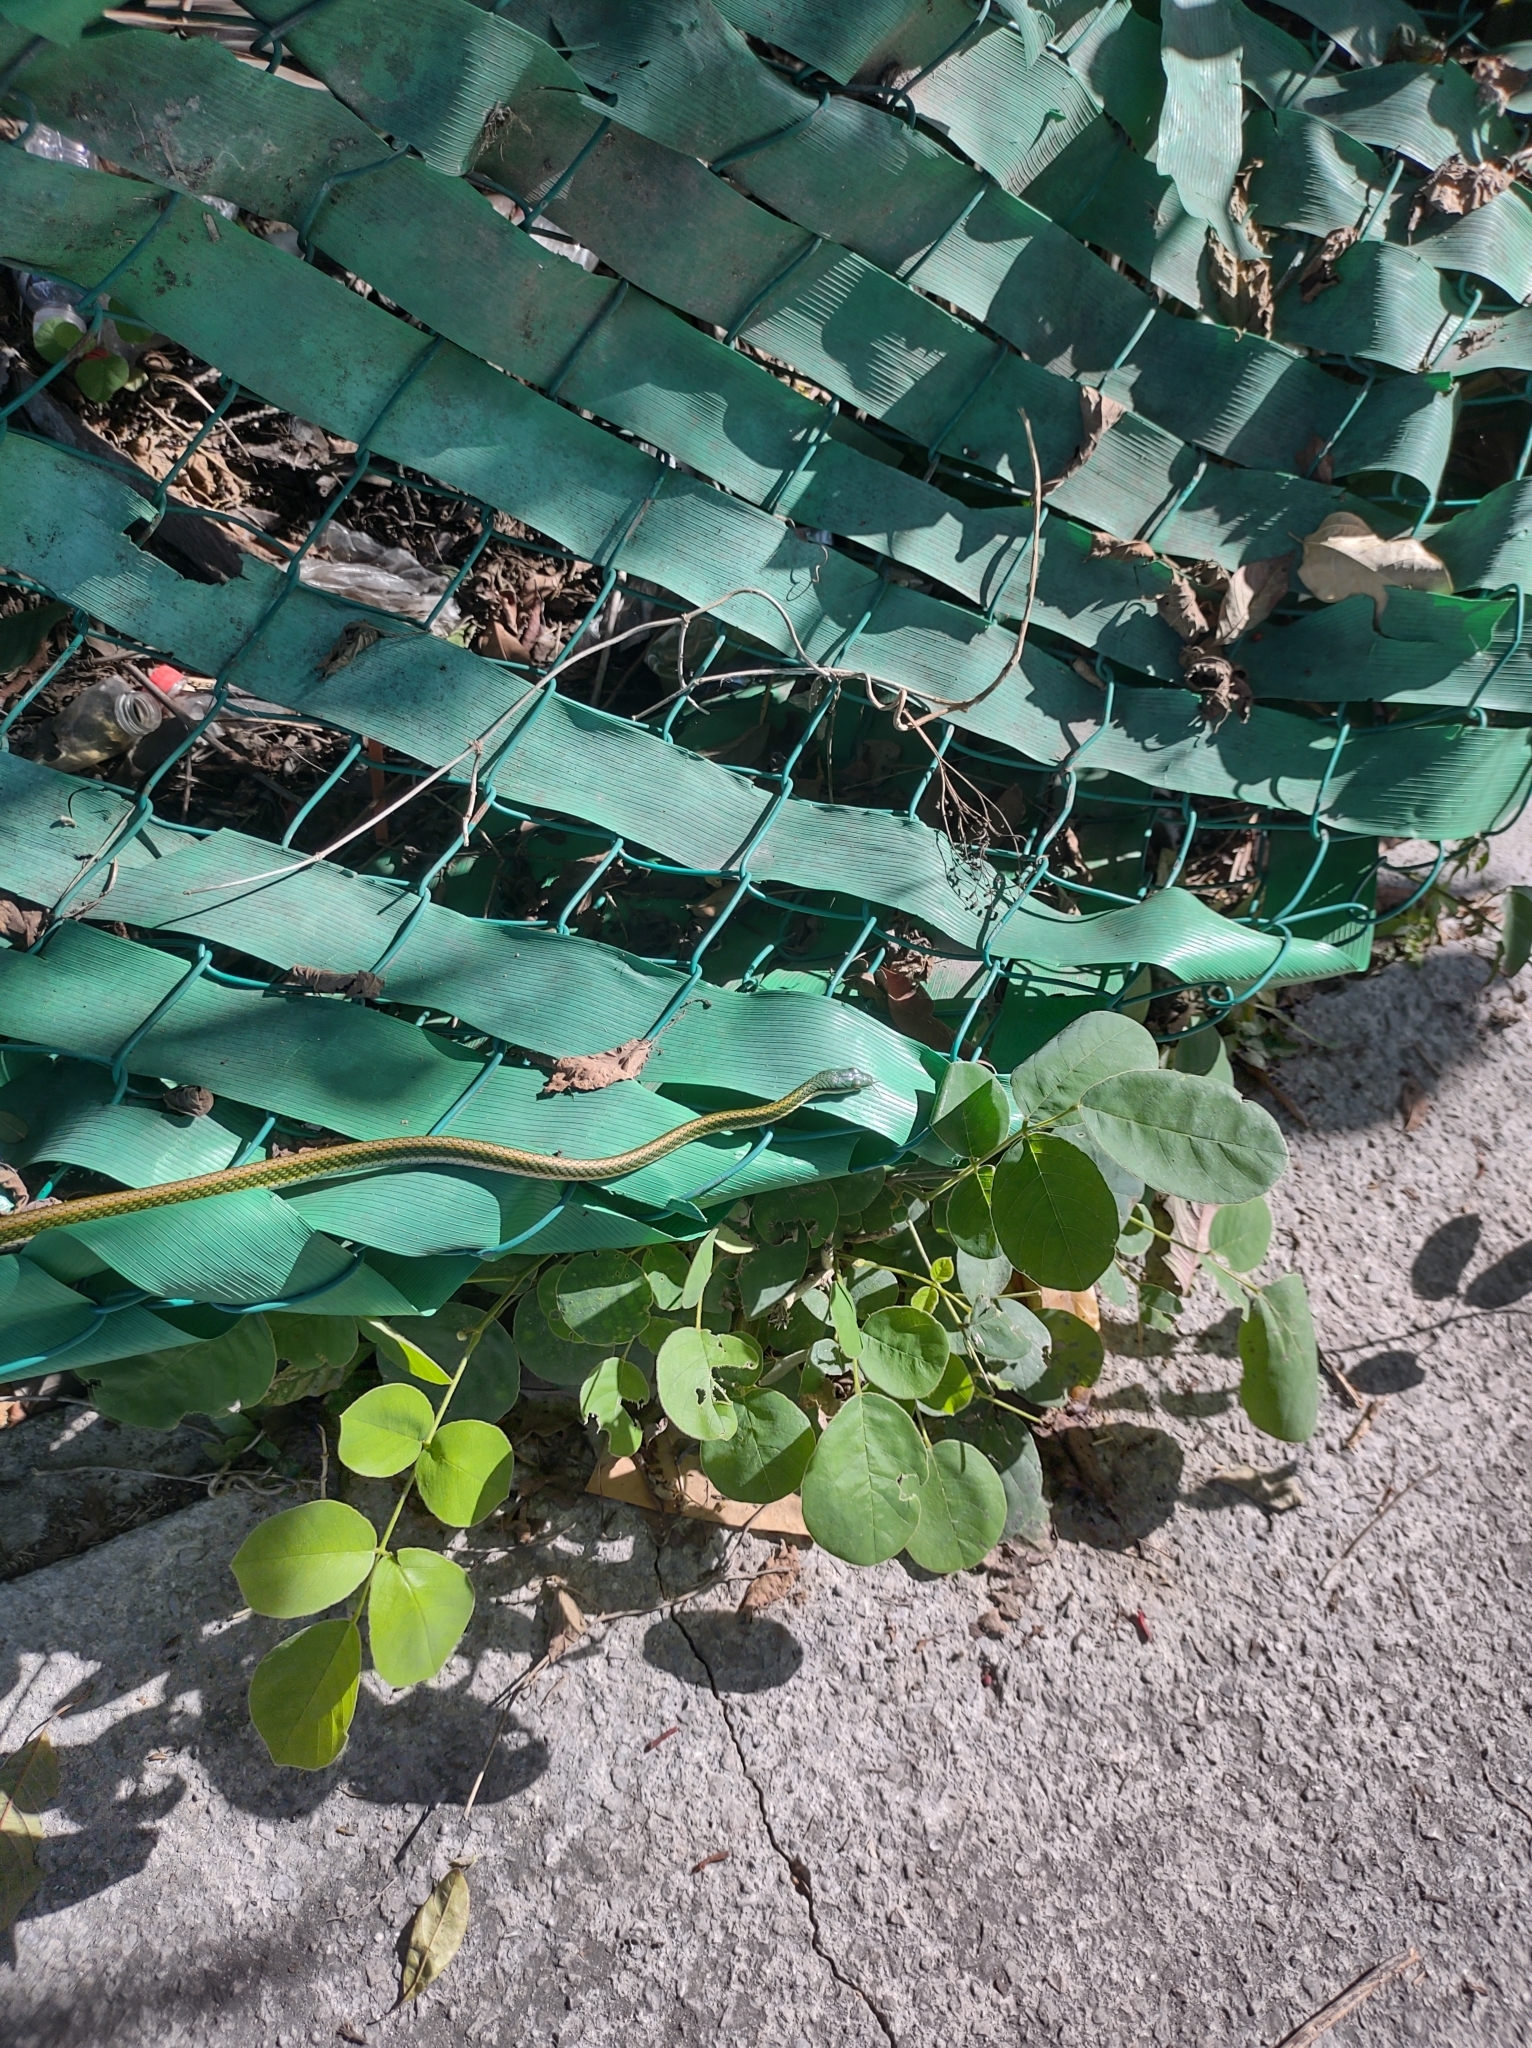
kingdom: Animalia
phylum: Chordata
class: Squamata
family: Colubridae
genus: Leptophis
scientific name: Leptophis mexicanus
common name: Mexican parrot snake
